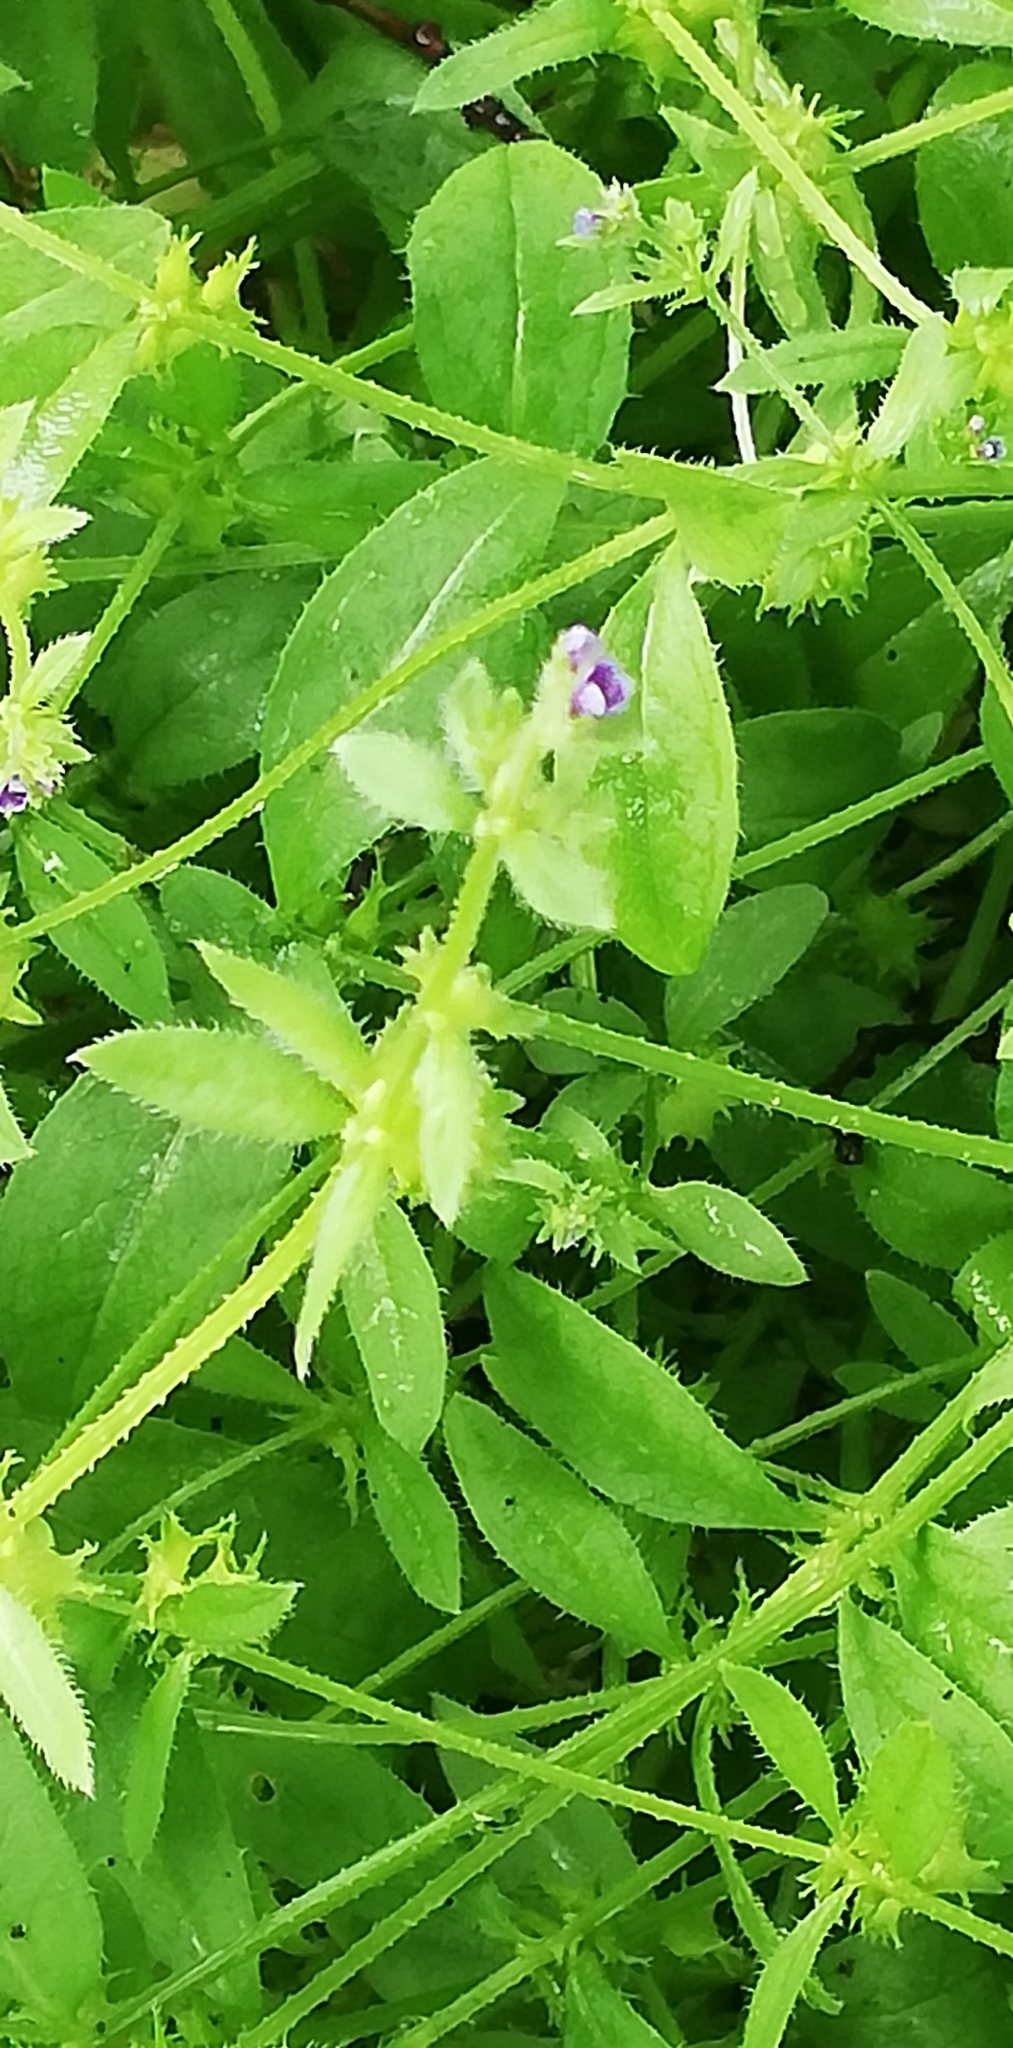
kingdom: Plantae
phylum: Tracheophyta
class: Magnoliopsida
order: Boraginales
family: Boraginaceae
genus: Asperugo
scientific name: Asperugo procumbens
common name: Madwort
